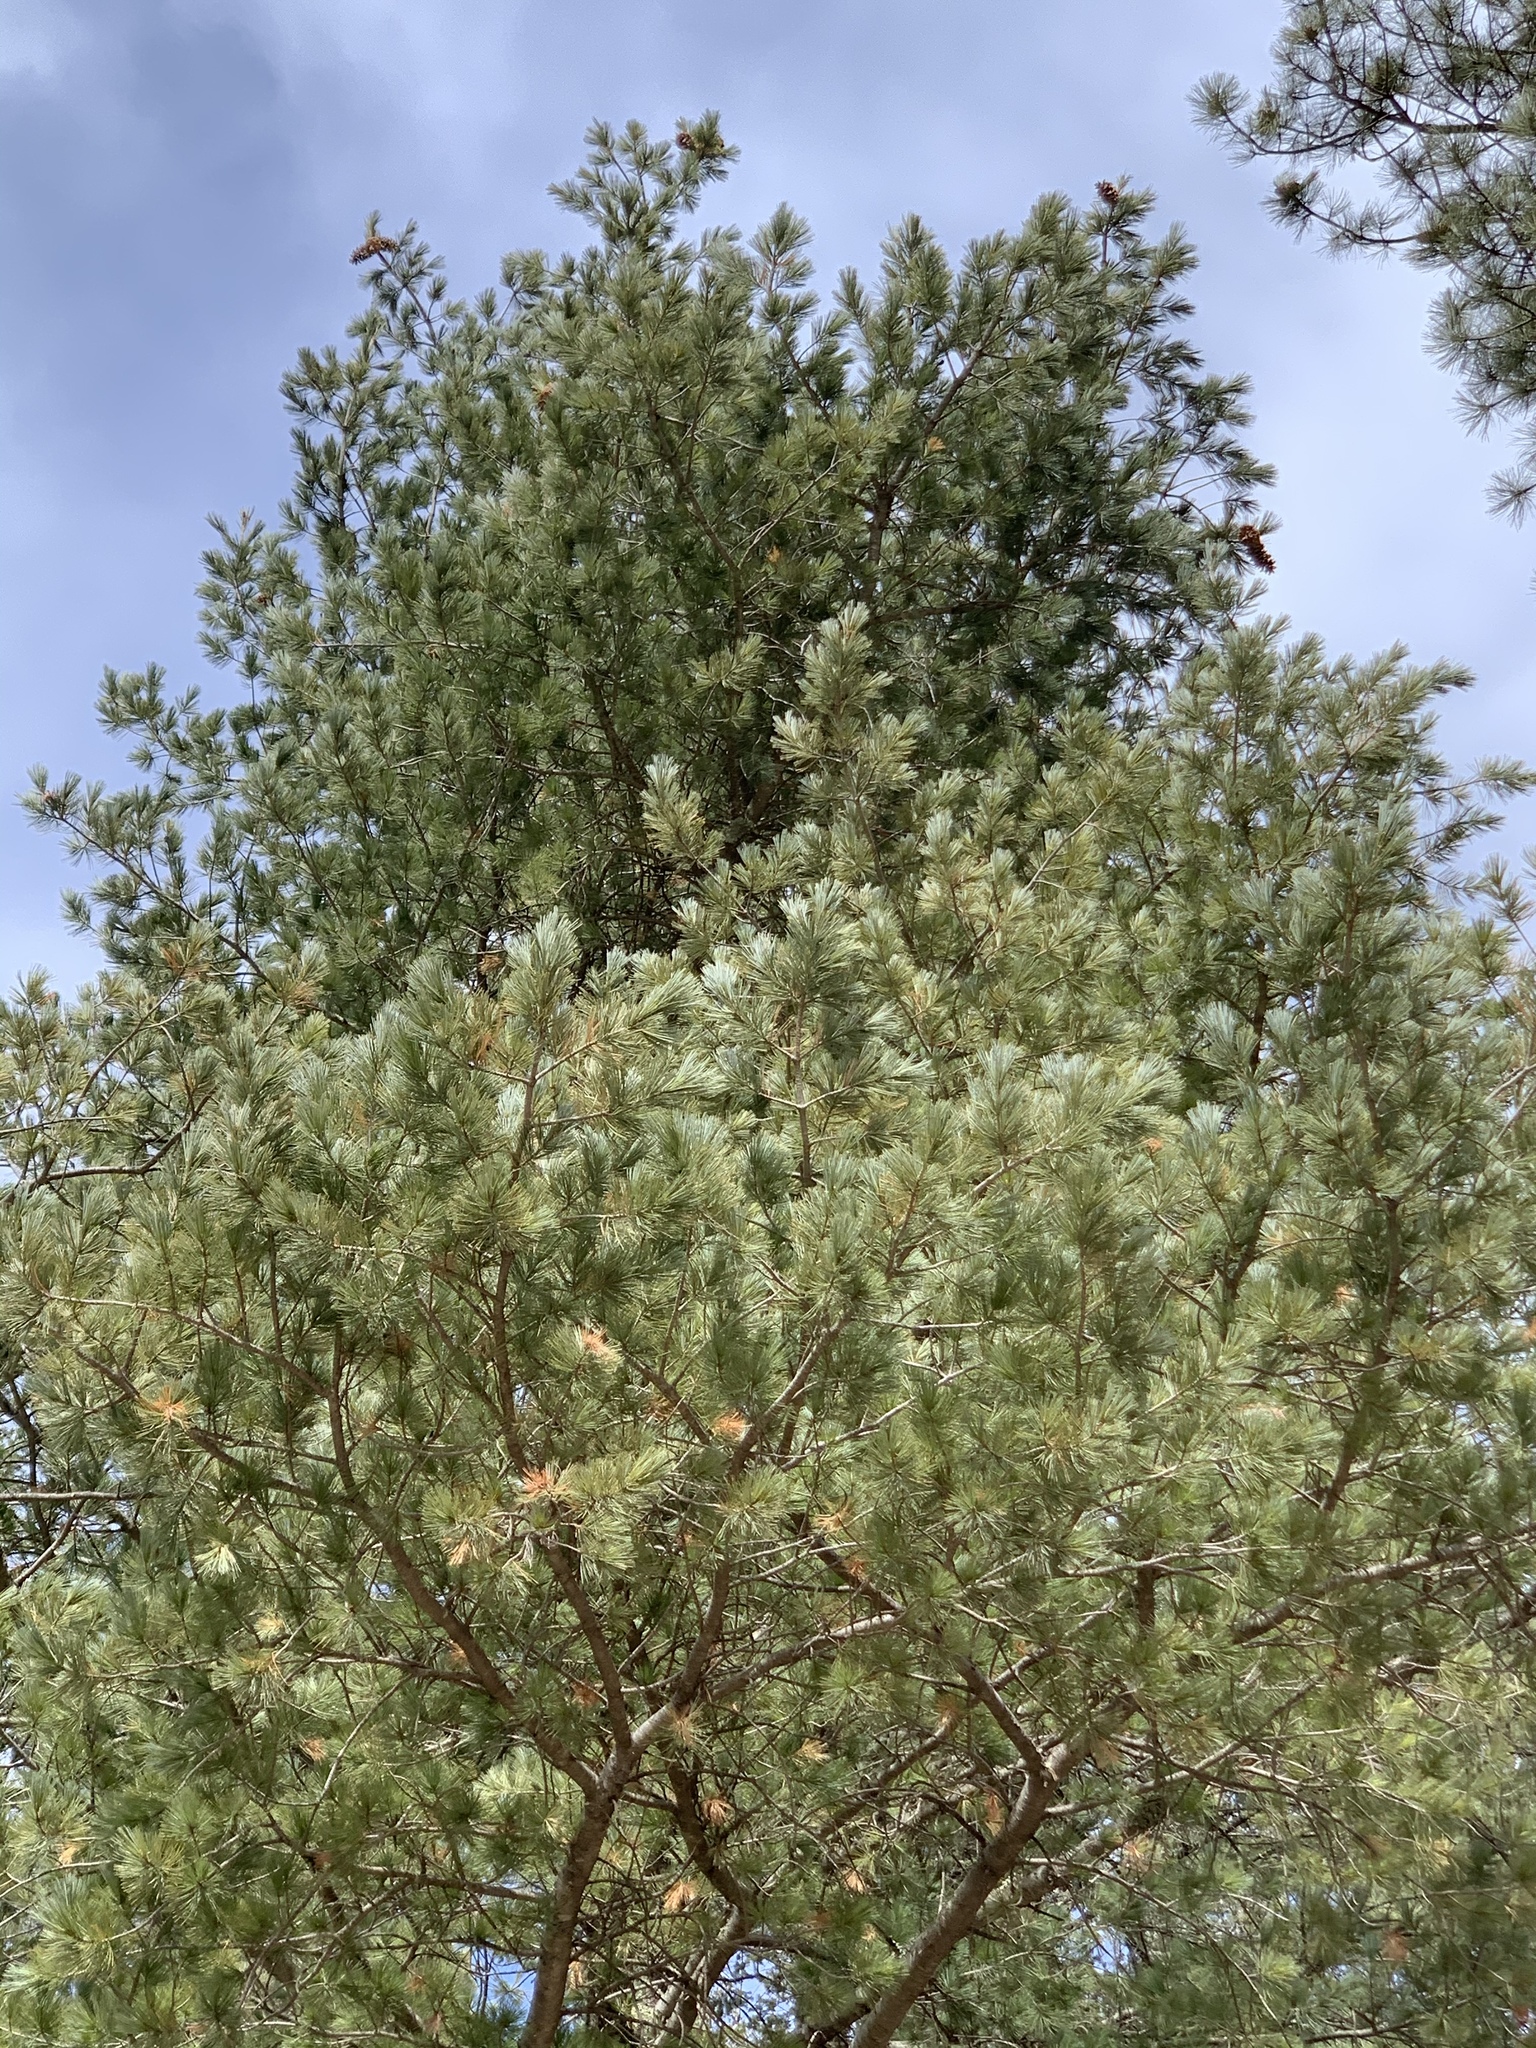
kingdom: Plantae
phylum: Tracheophyta
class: Pinopsida
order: Pinales
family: Pinaceae
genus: Pinus
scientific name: Pinus strobiformis
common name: Southwestern white pine
